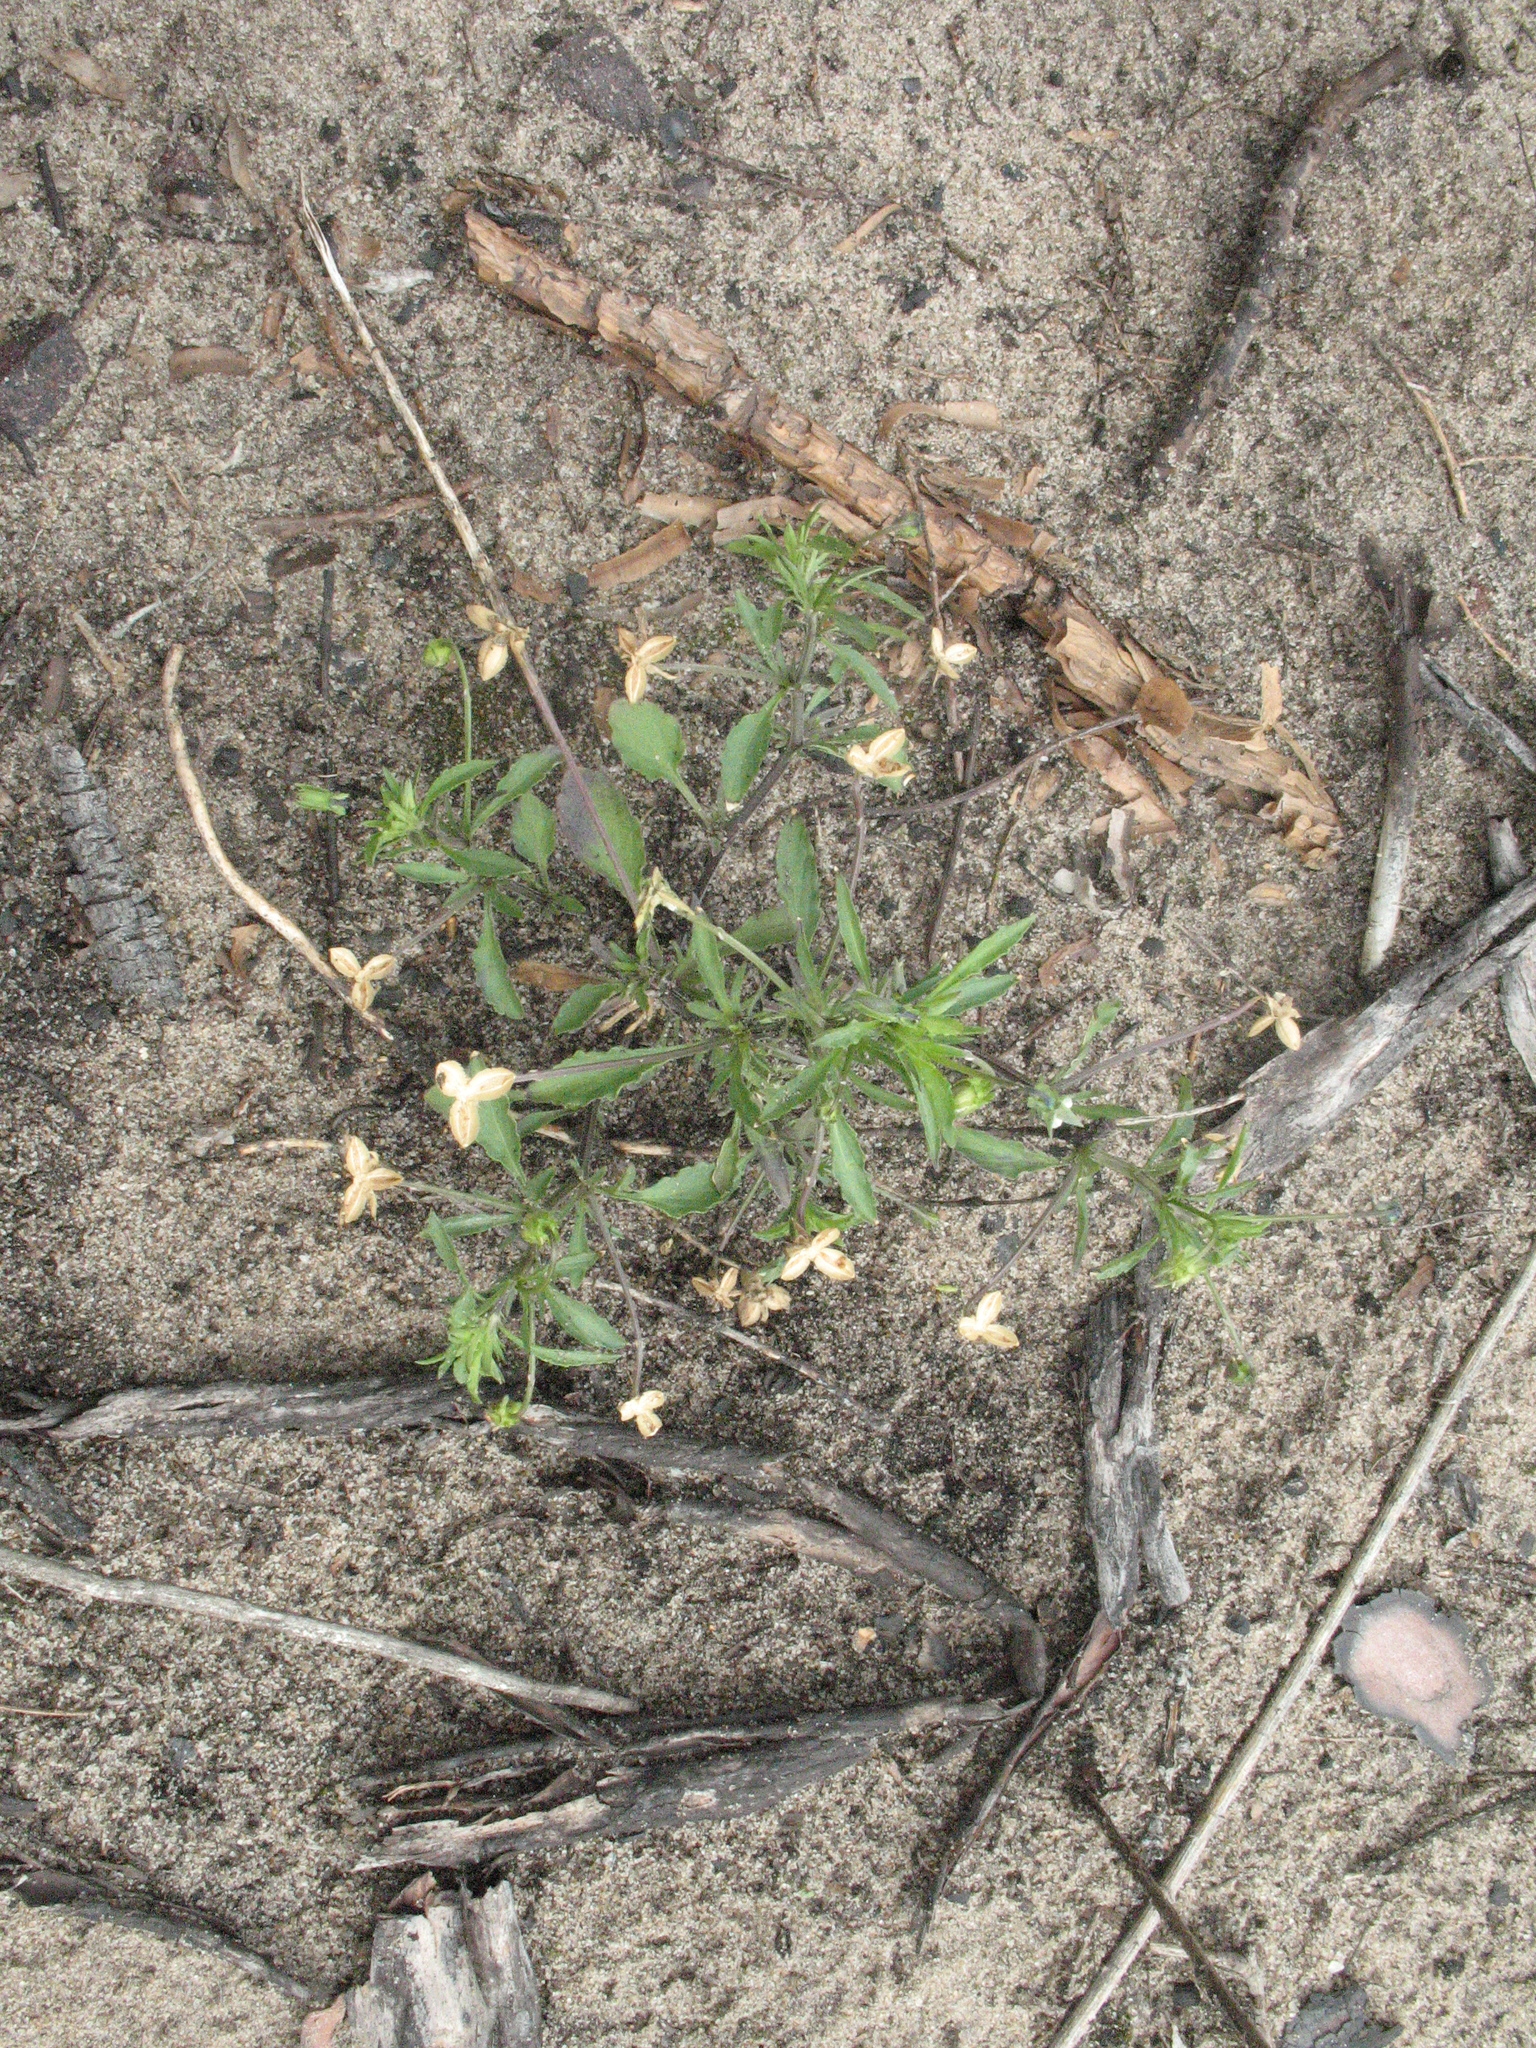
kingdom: Plantae
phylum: Tracheophyta
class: Magnoliopsida
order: Malpighiales
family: Violaceae
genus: Viola
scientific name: Viola arvensis
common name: Field pansy
